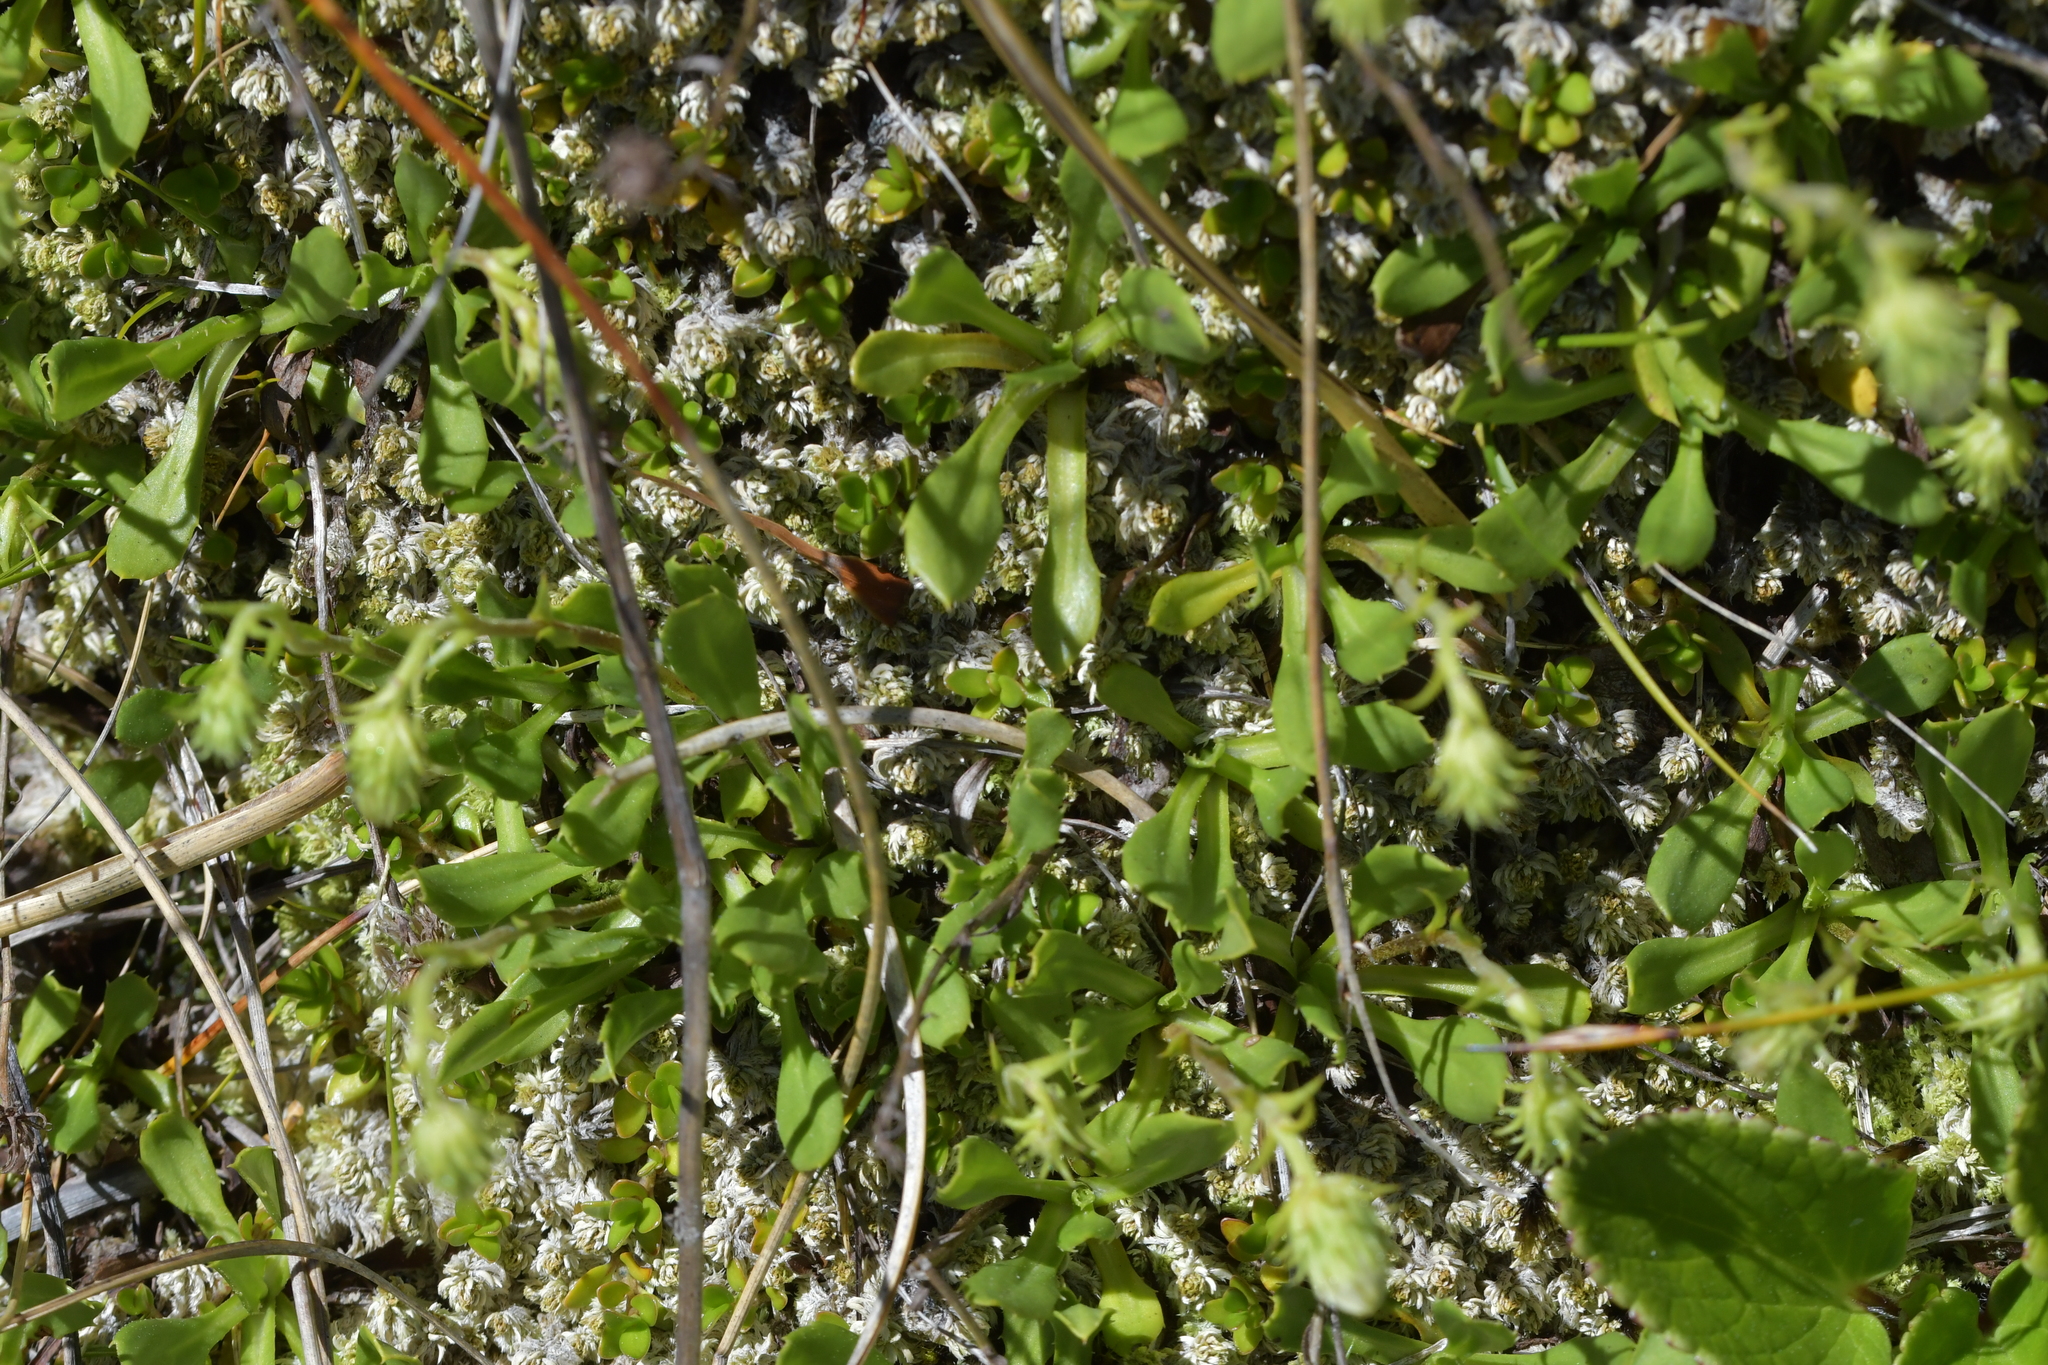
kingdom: Plantae
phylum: Tracheophyta
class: Magnoliopsida
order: Asterales
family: Asteraceae
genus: Celmisia
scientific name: Celmisia glandulosa
